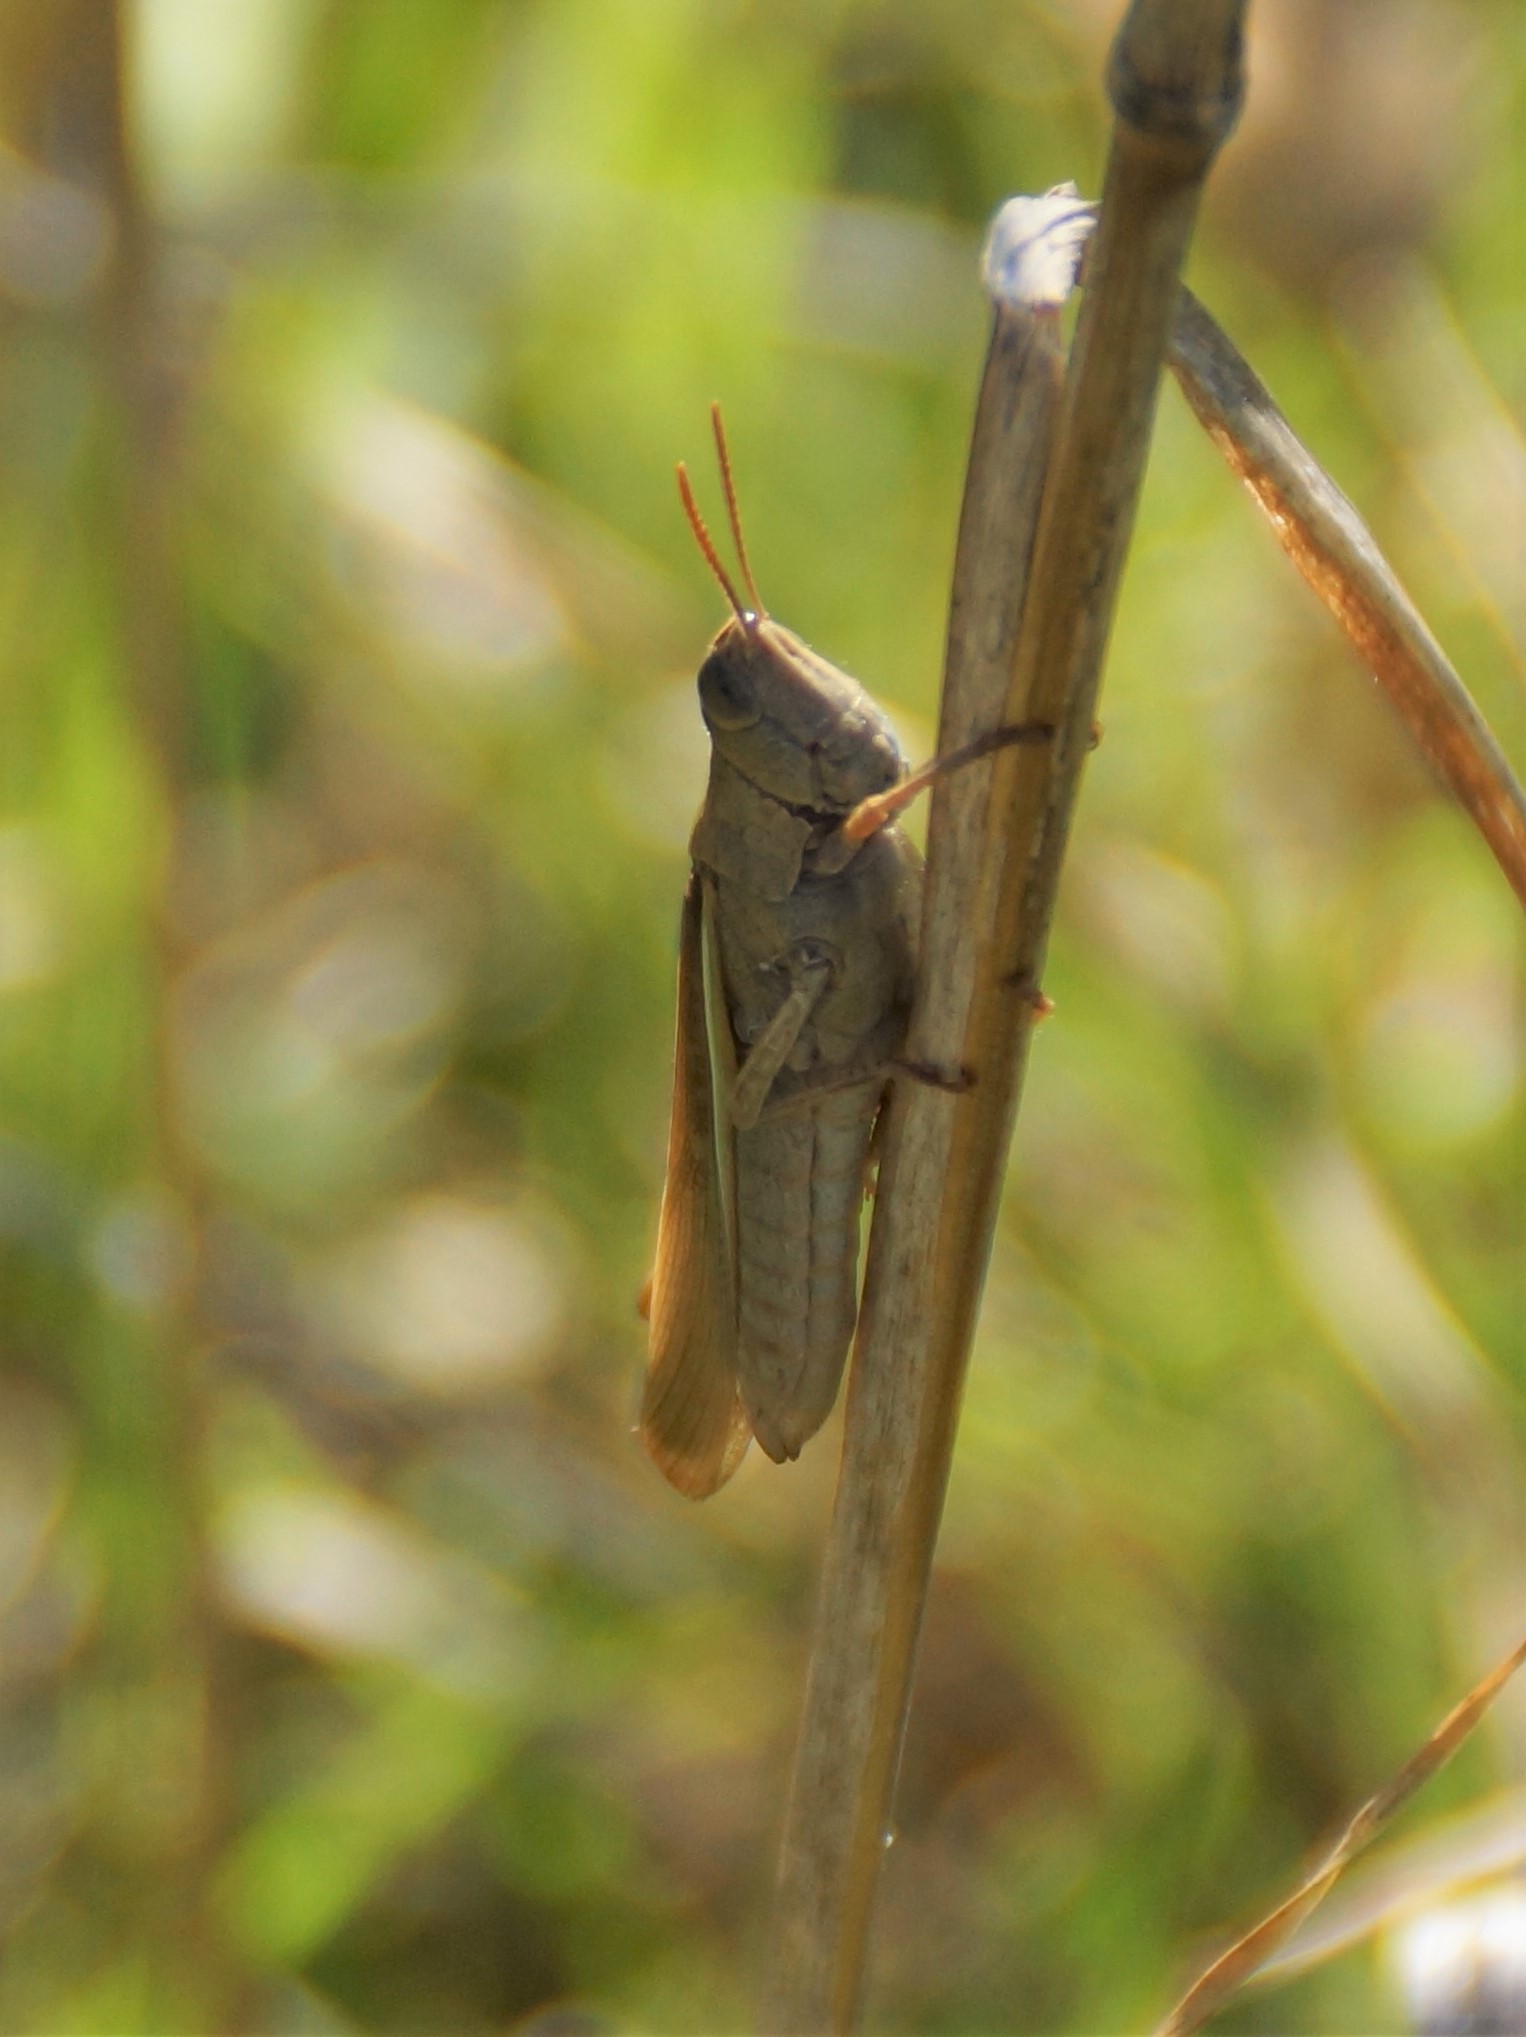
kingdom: Animalia
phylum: Arthropoda
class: Insecta
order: Orthoptera
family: Acrididae
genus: Schizobothrus
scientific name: Schizobothrus flavovittatus
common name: Disappearing grasshopper
